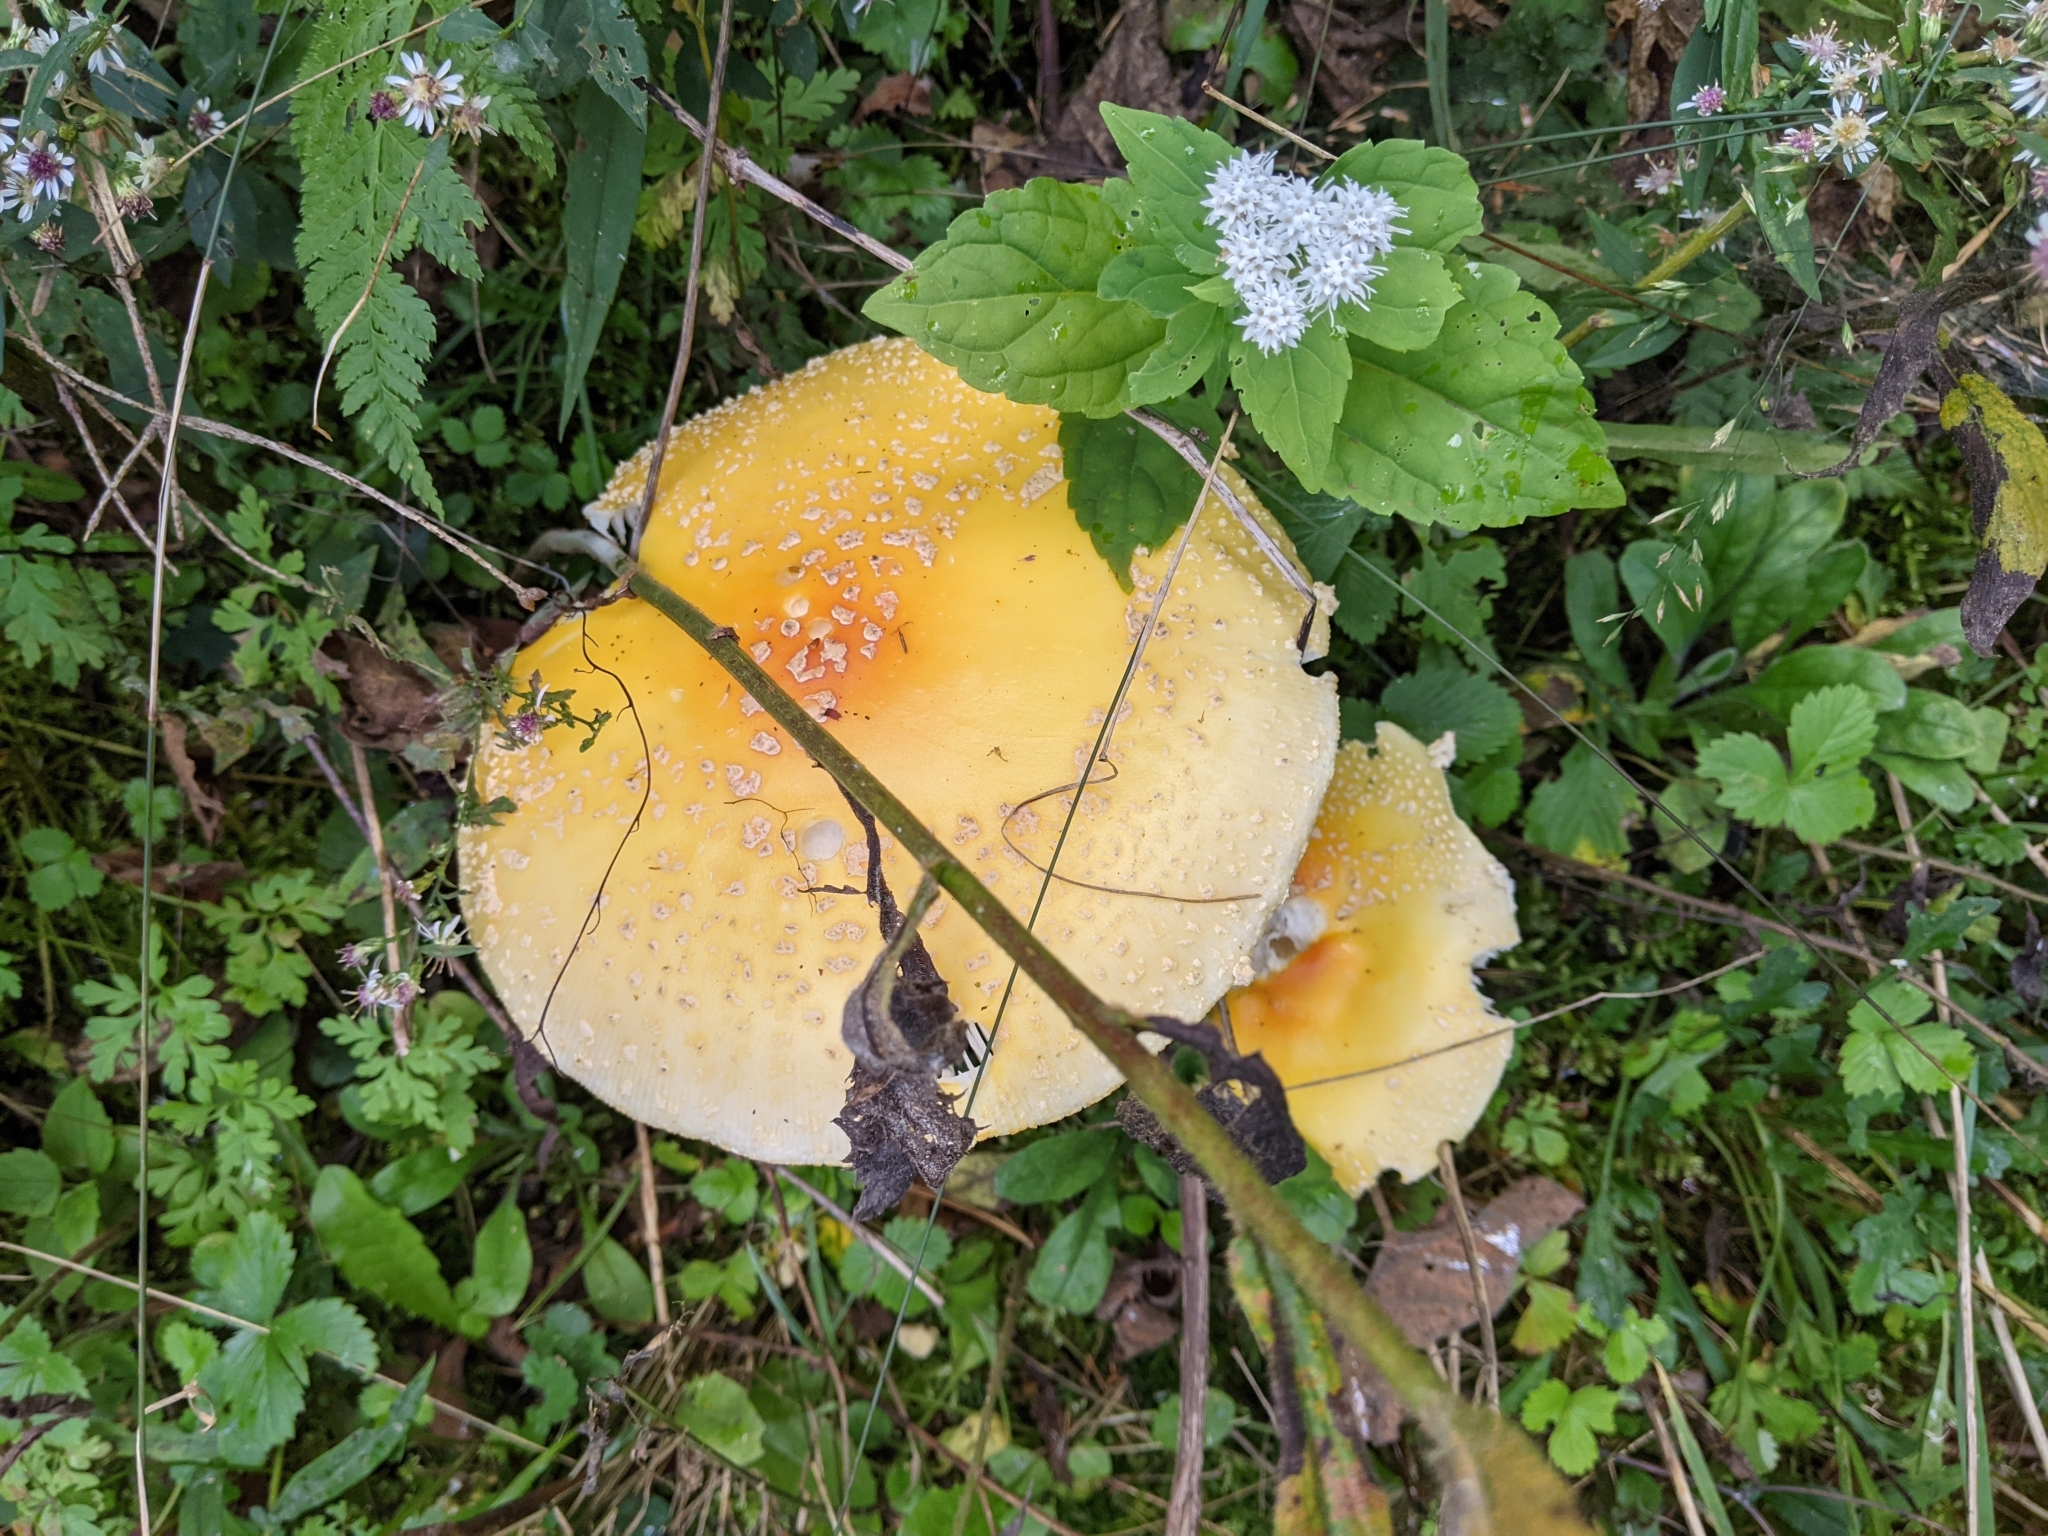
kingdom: Fungi
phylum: Basidiomycota
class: Agaricomycetes
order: Agaricales
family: Amanitaceae
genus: Amanita
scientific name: Amanita muscaria
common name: Fly agaric
